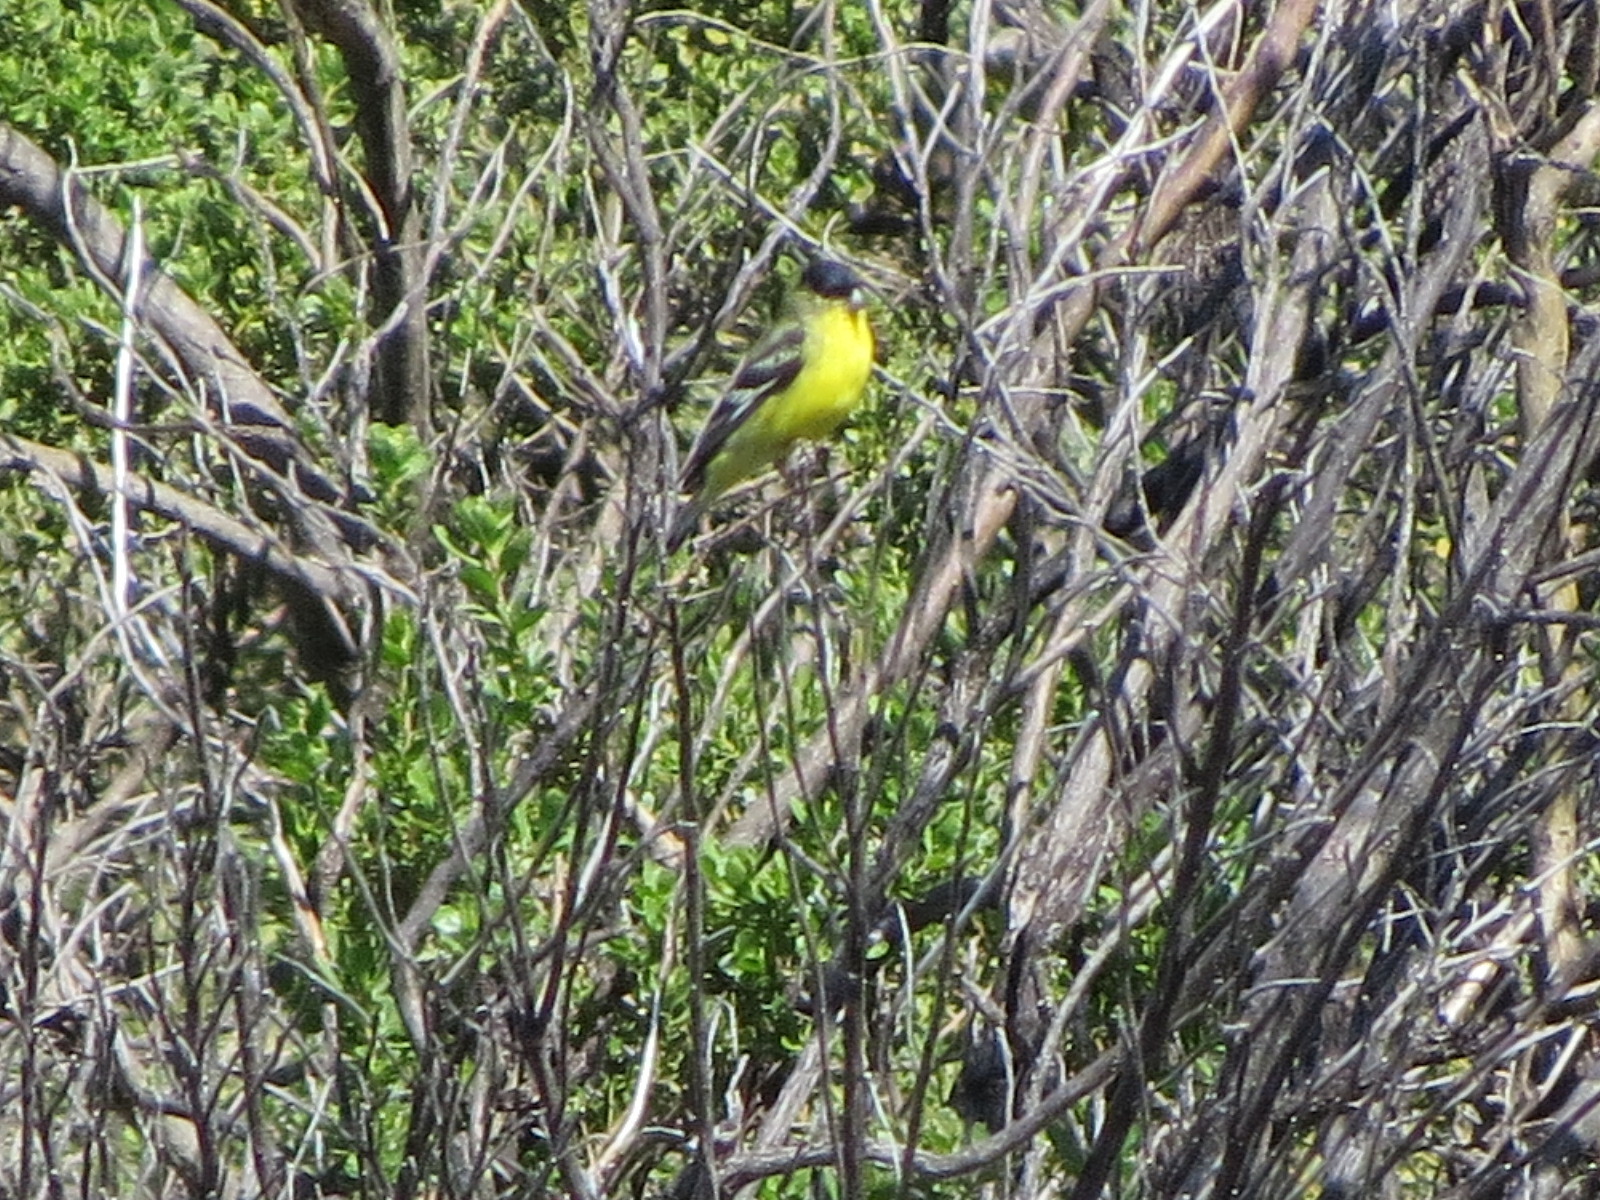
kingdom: Animalia
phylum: Chordata
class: Aves
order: Passeriformes
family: Fringillidae
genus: Spinus
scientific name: Spinus psaltria
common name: Lesser goldfinch
